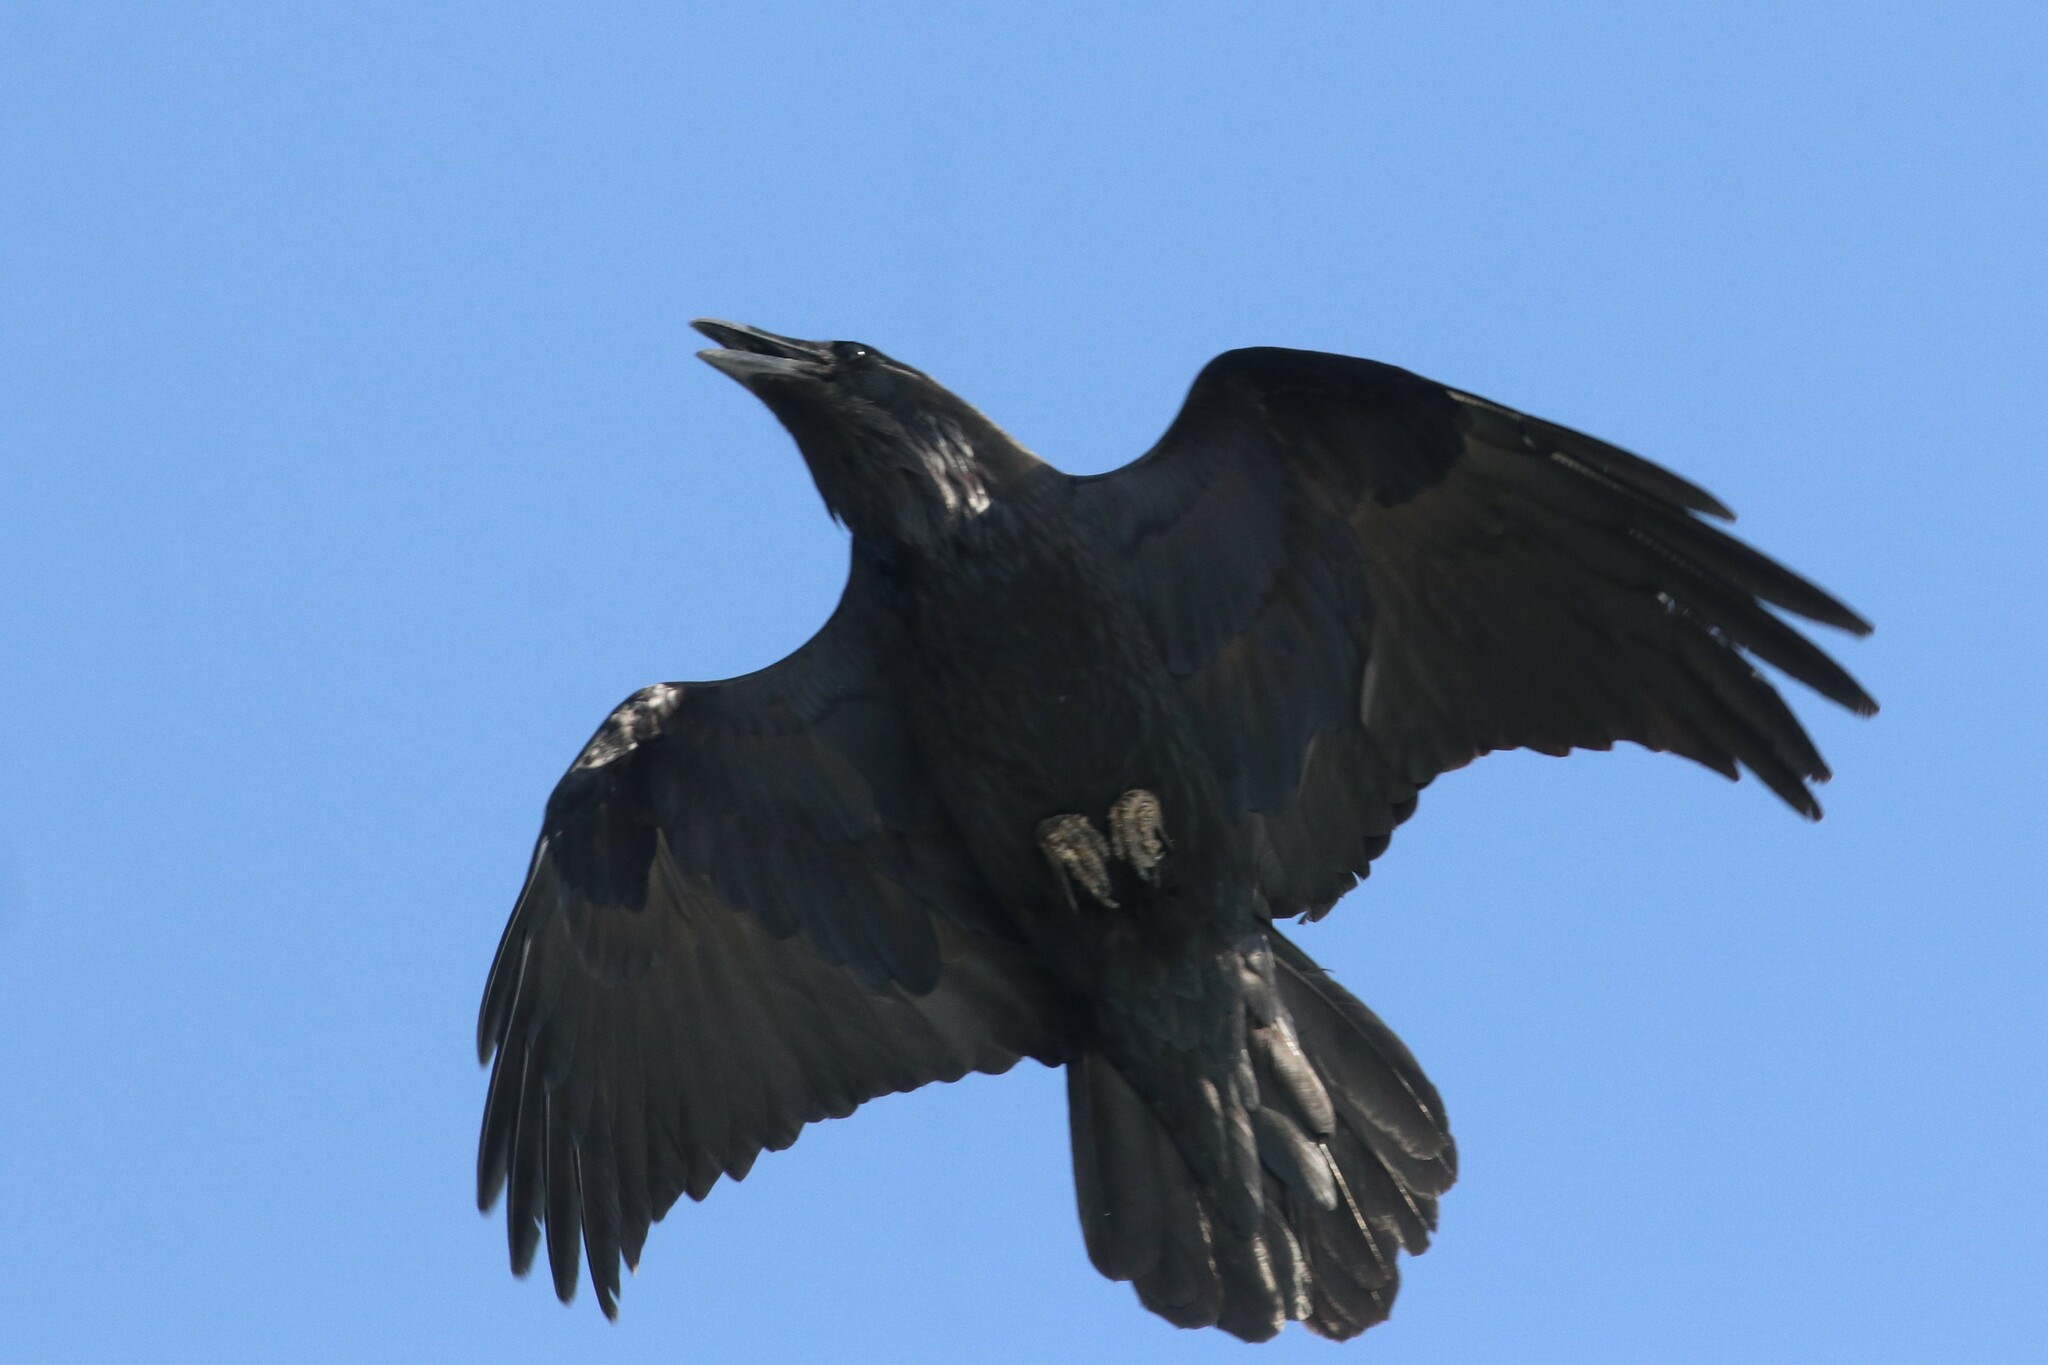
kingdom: Animalia
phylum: Chordata
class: Aves
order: Passeriformes
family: Corvidae
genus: Corvus
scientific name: Corvus corax
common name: Common raven
